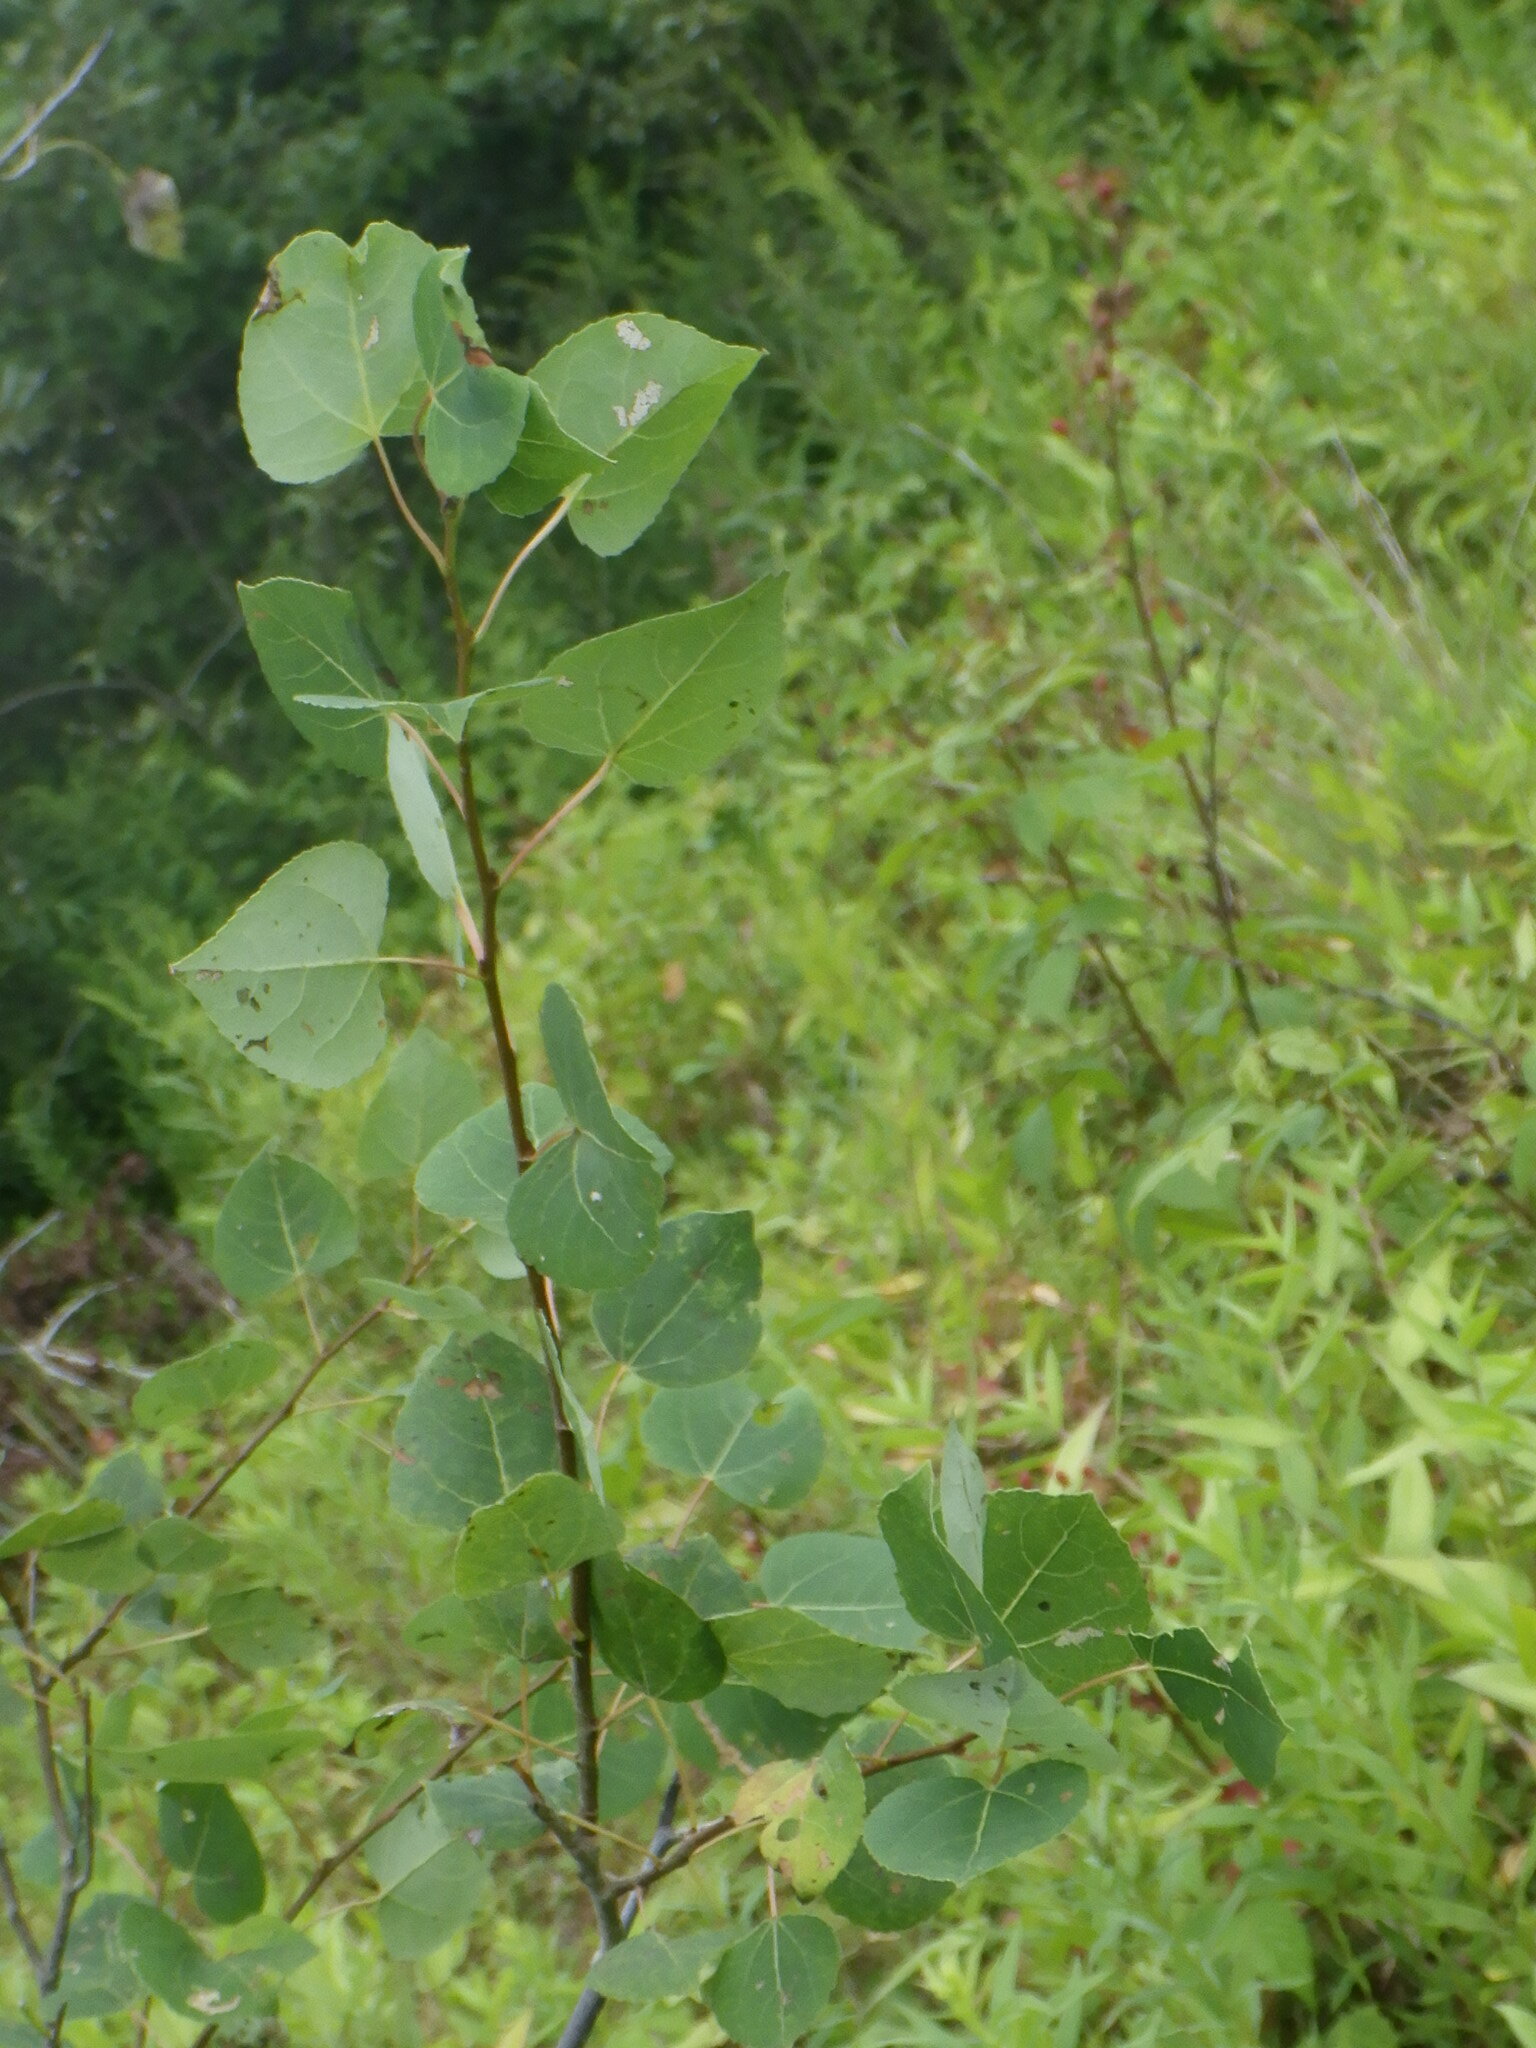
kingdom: Plantae
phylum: Tracheophyta
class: Magnoliopsida
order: Malpighiales
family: Salicaceae
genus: Populus
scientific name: Populus tremuloides
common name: Quaking aspen
